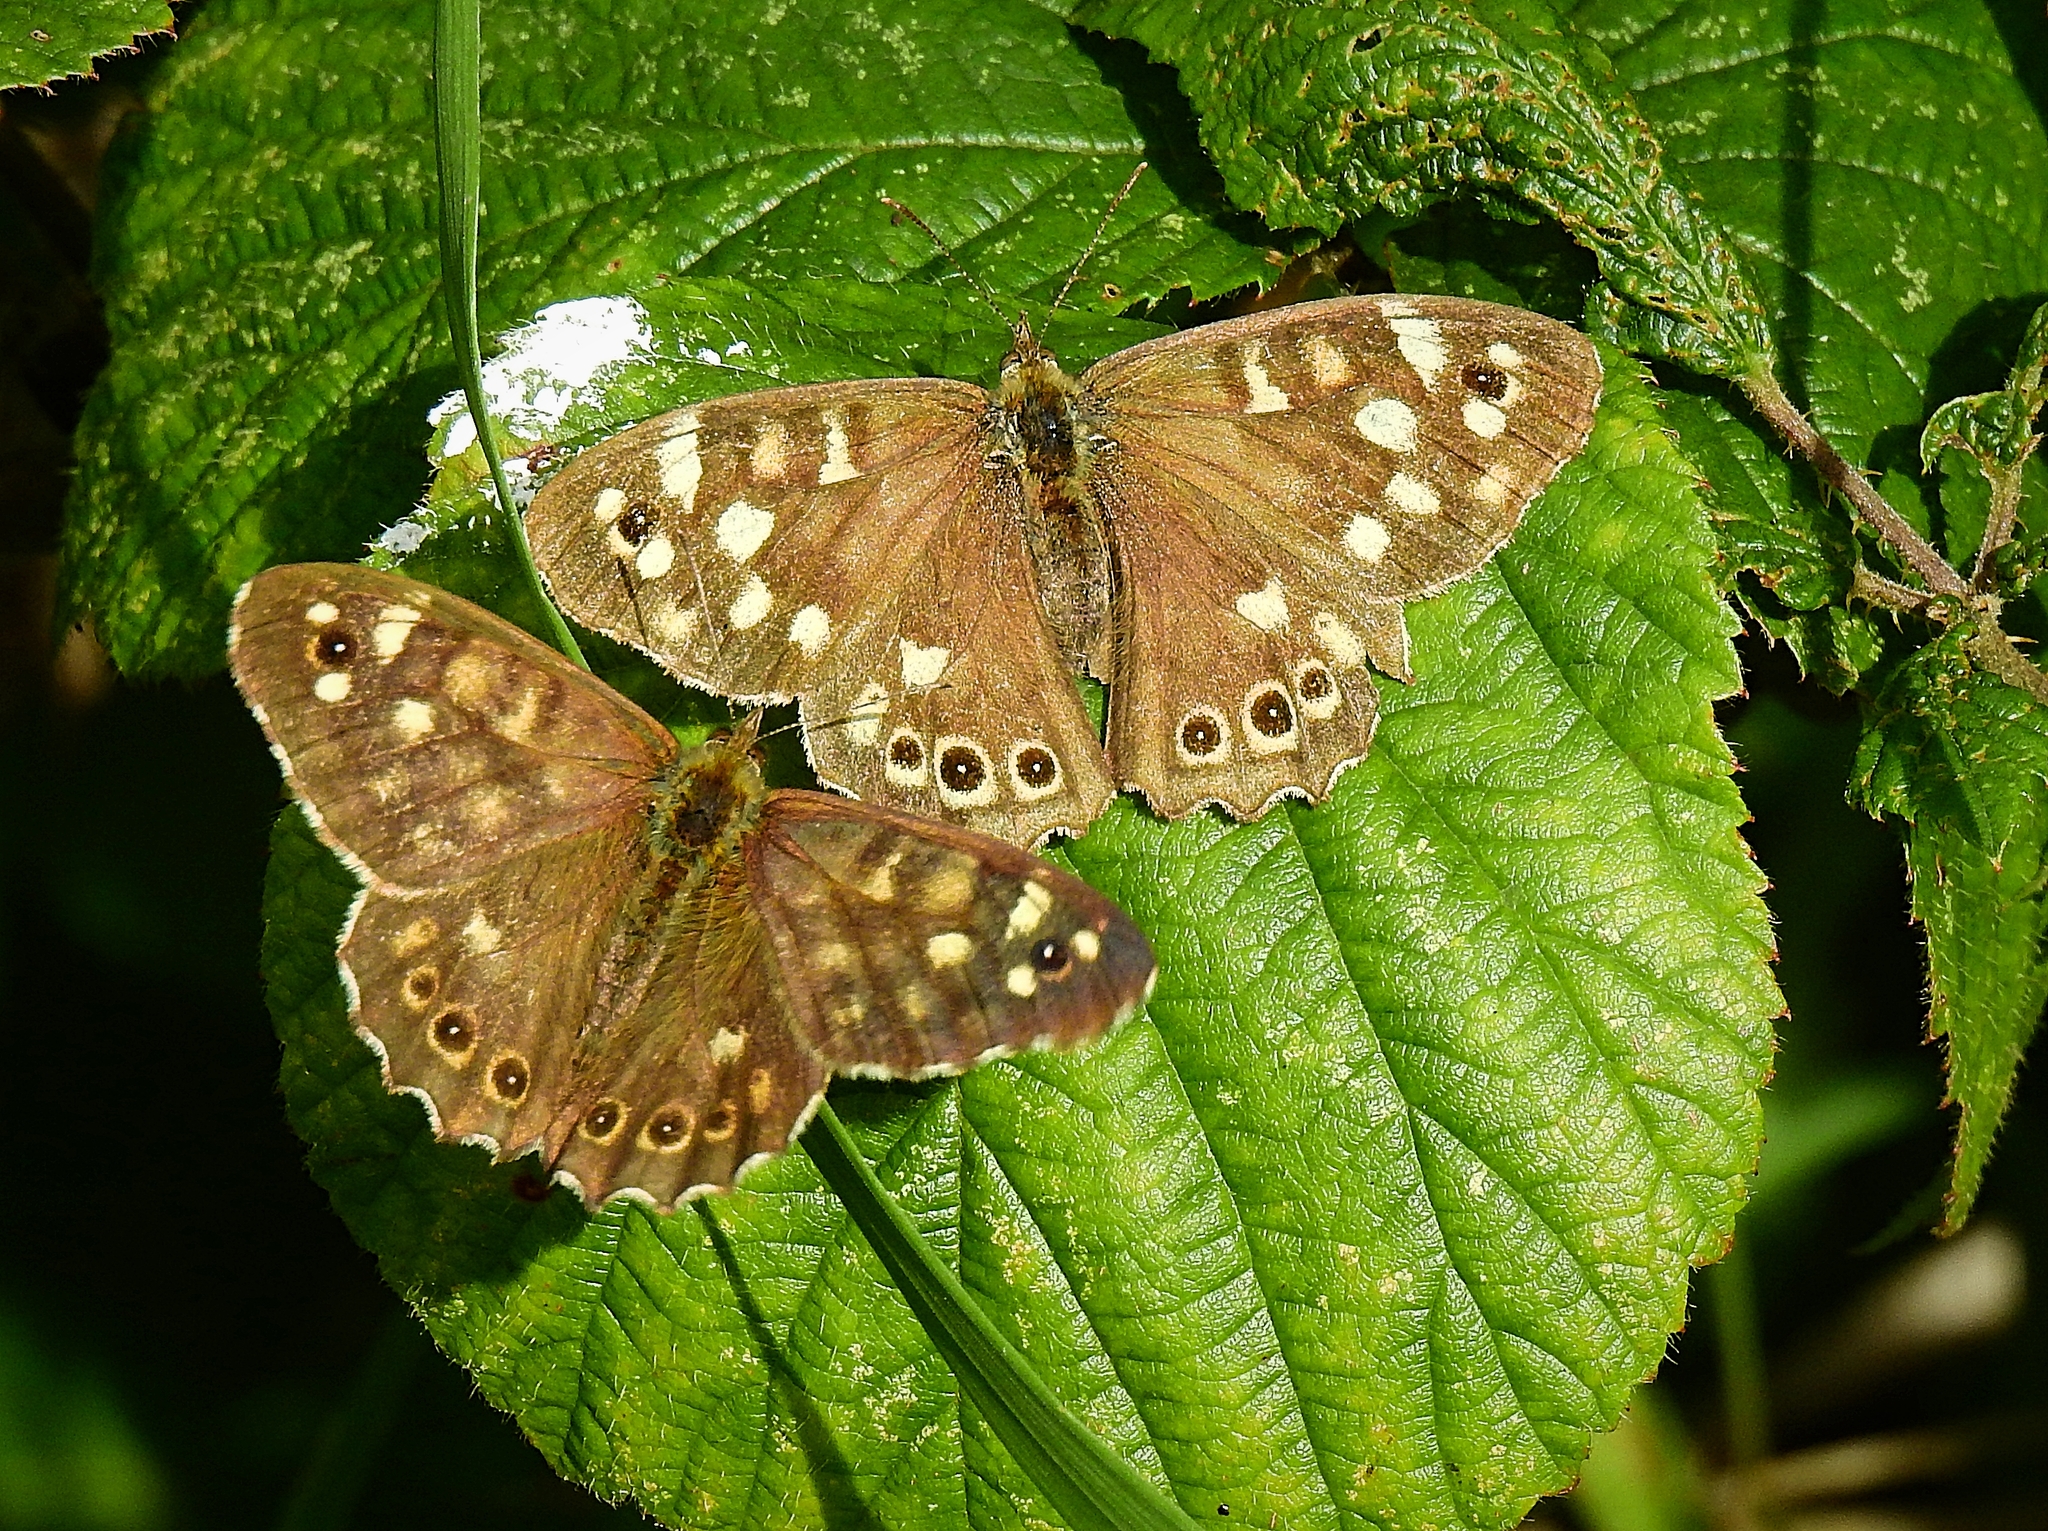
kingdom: Animalia
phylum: Arthropoda
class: Insecta
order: Lepidoptera
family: Nymphalidae
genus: Pararge
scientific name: Pararge aegeria
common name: Speckled wood
